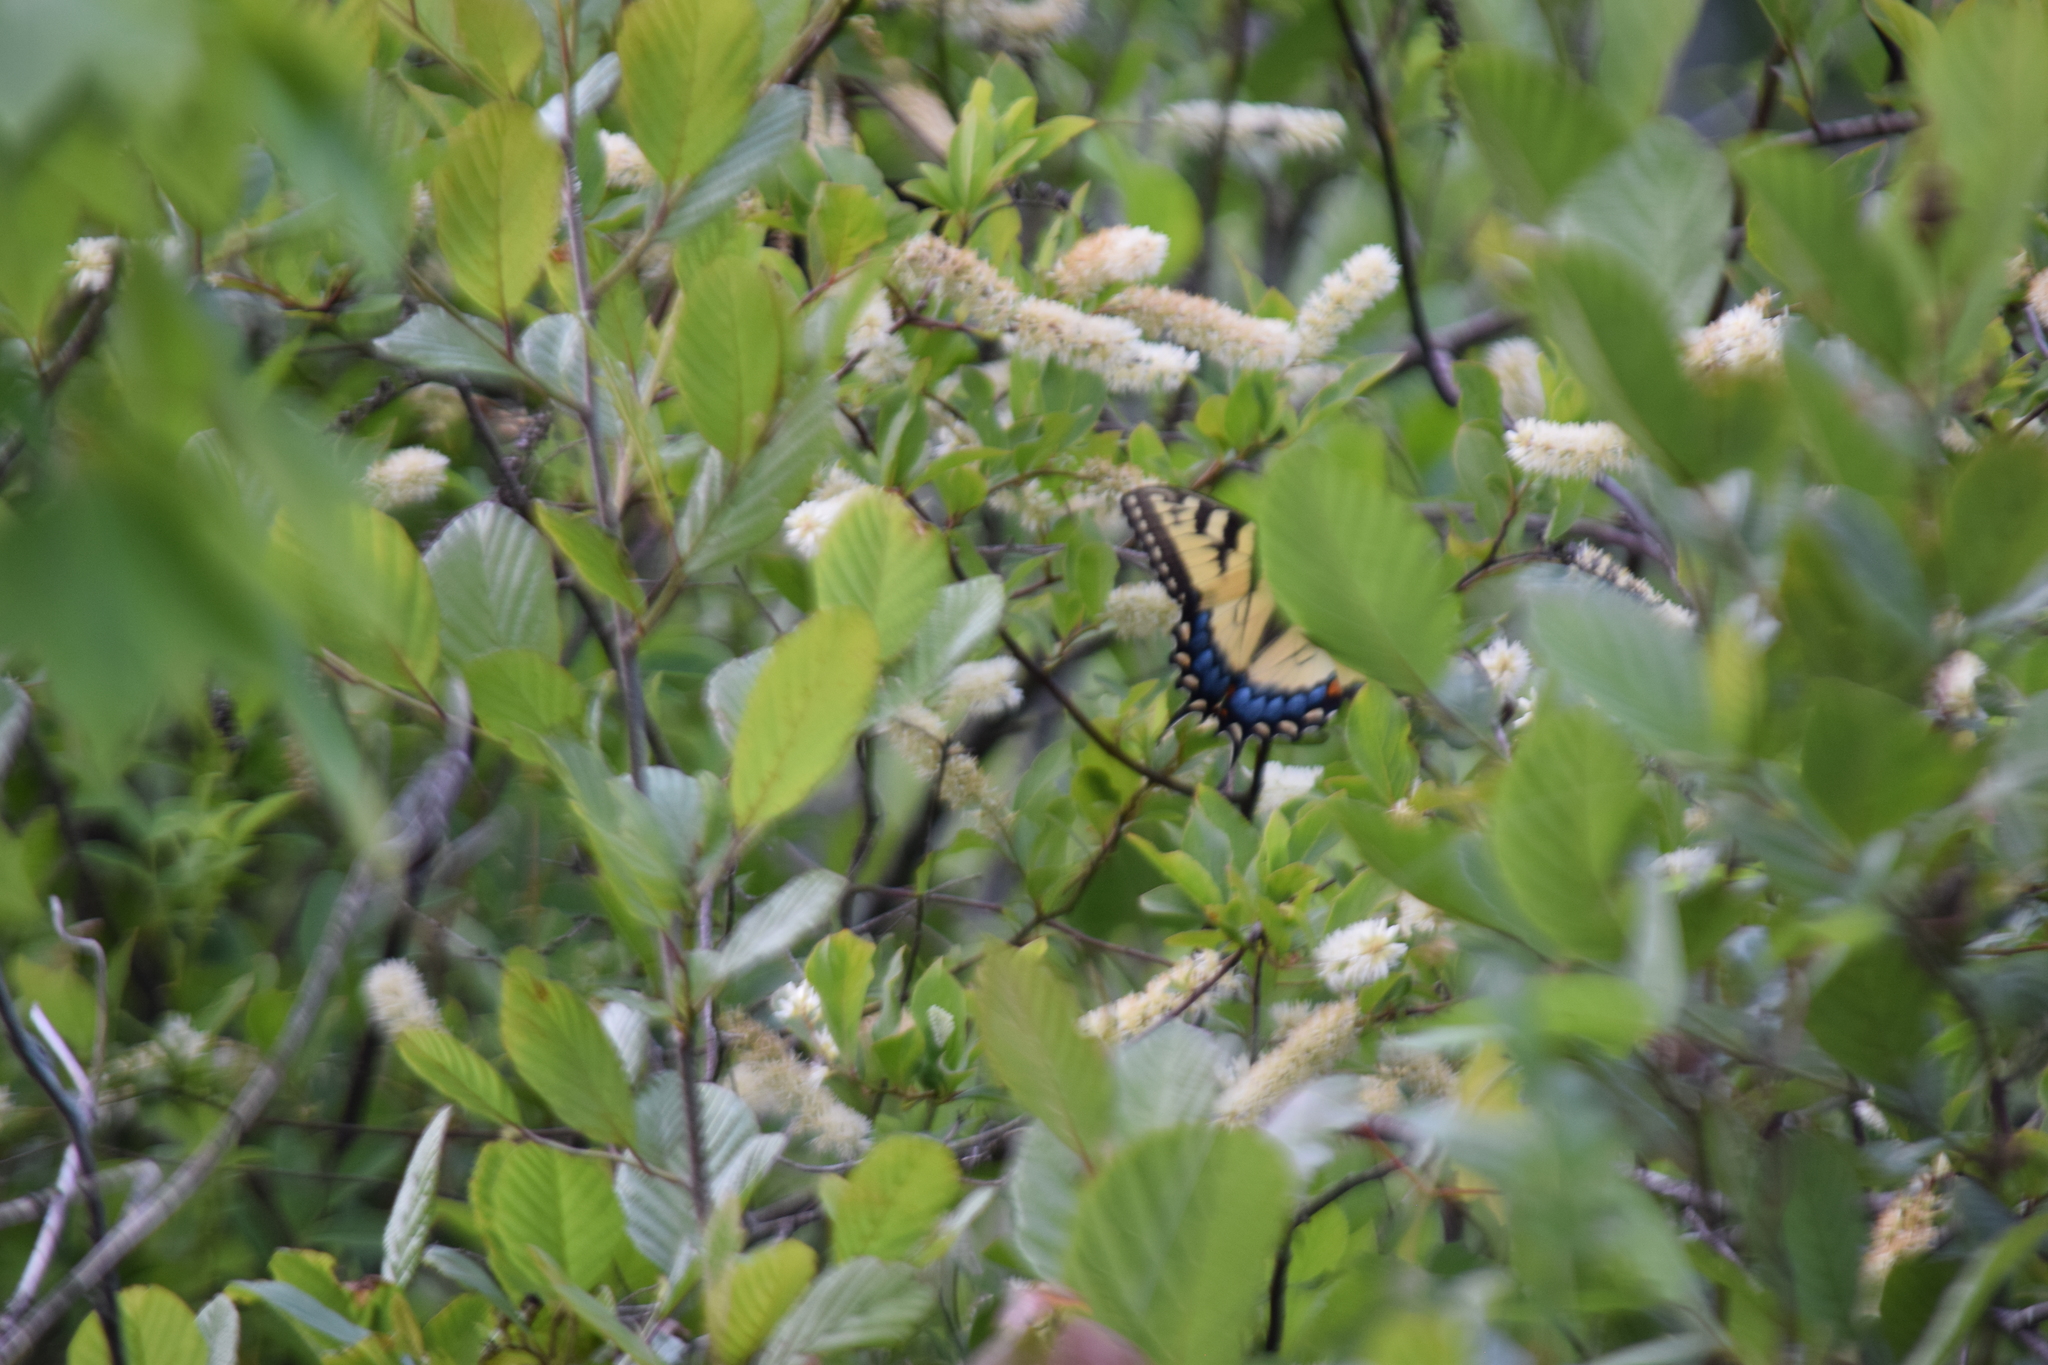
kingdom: Animalia
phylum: Arthropoda
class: Insecta
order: Lepidoptera
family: Papilionidae
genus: Papilio
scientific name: Papilio glaucus
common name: Tiger swallowtail
